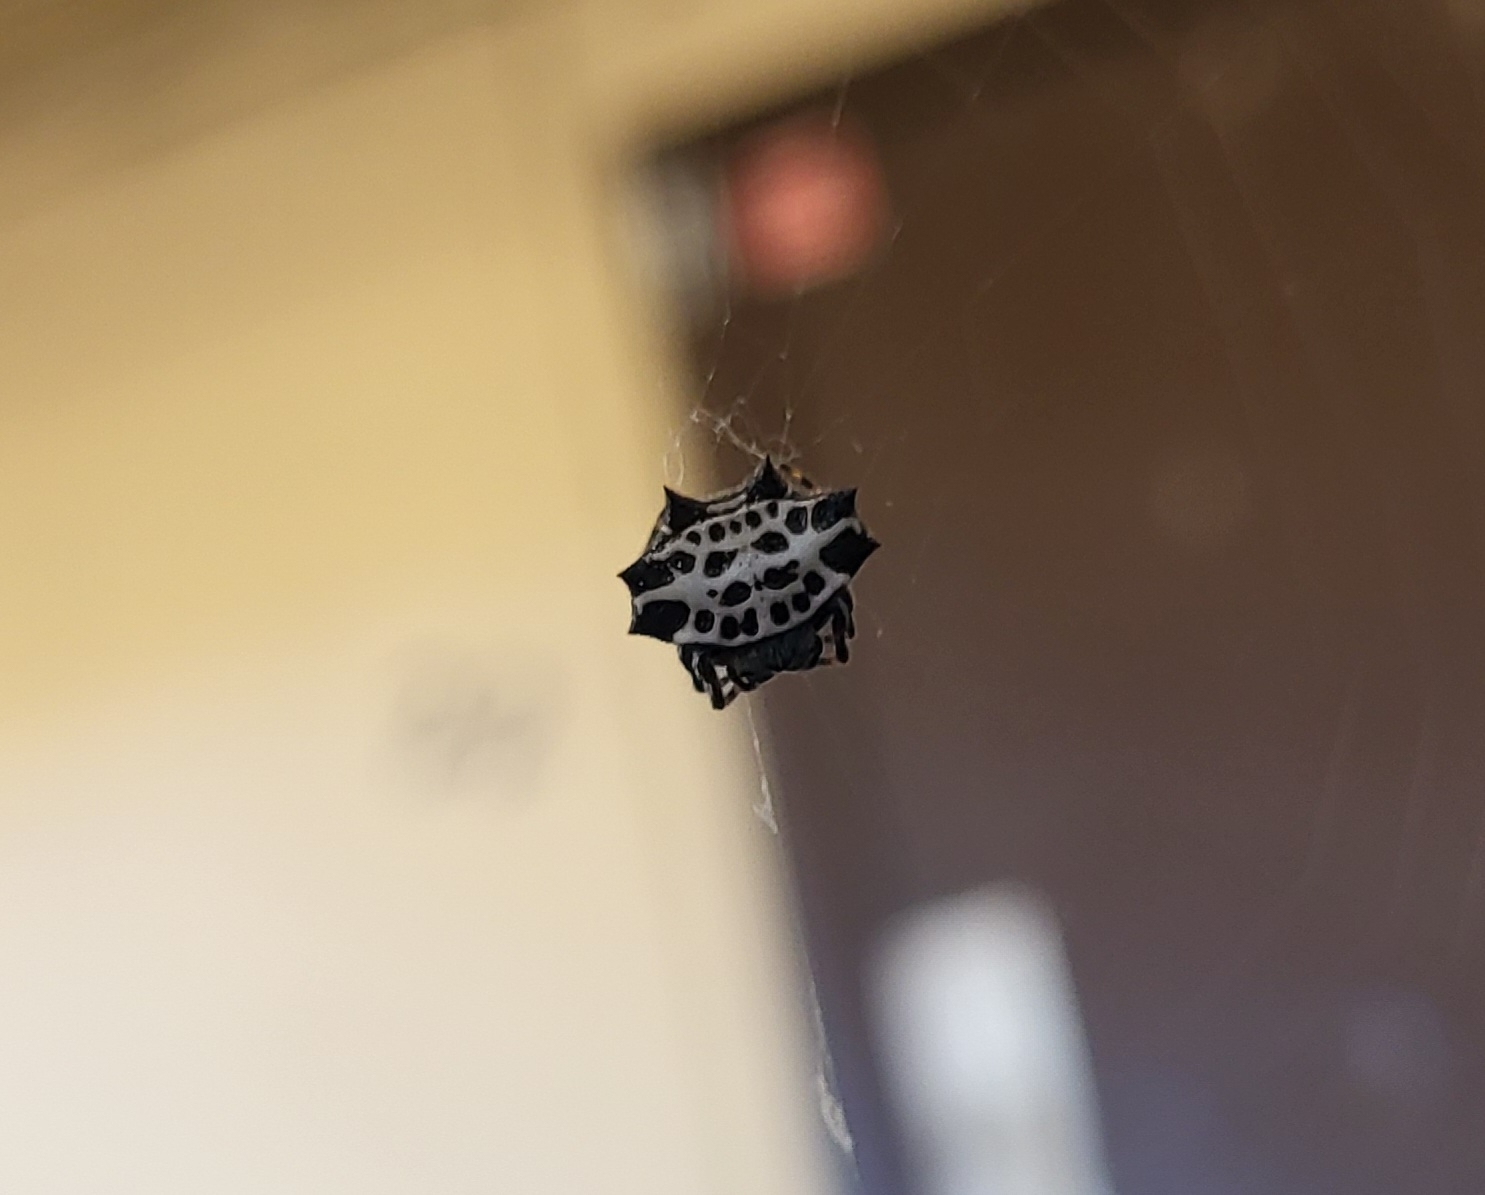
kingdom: Animalia
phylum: Arthropoda
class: Arachnida
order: Araneae
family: Araneidae
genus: Gasteracantha
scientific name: Gasteracantha cancriformis
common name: Orb weavers
